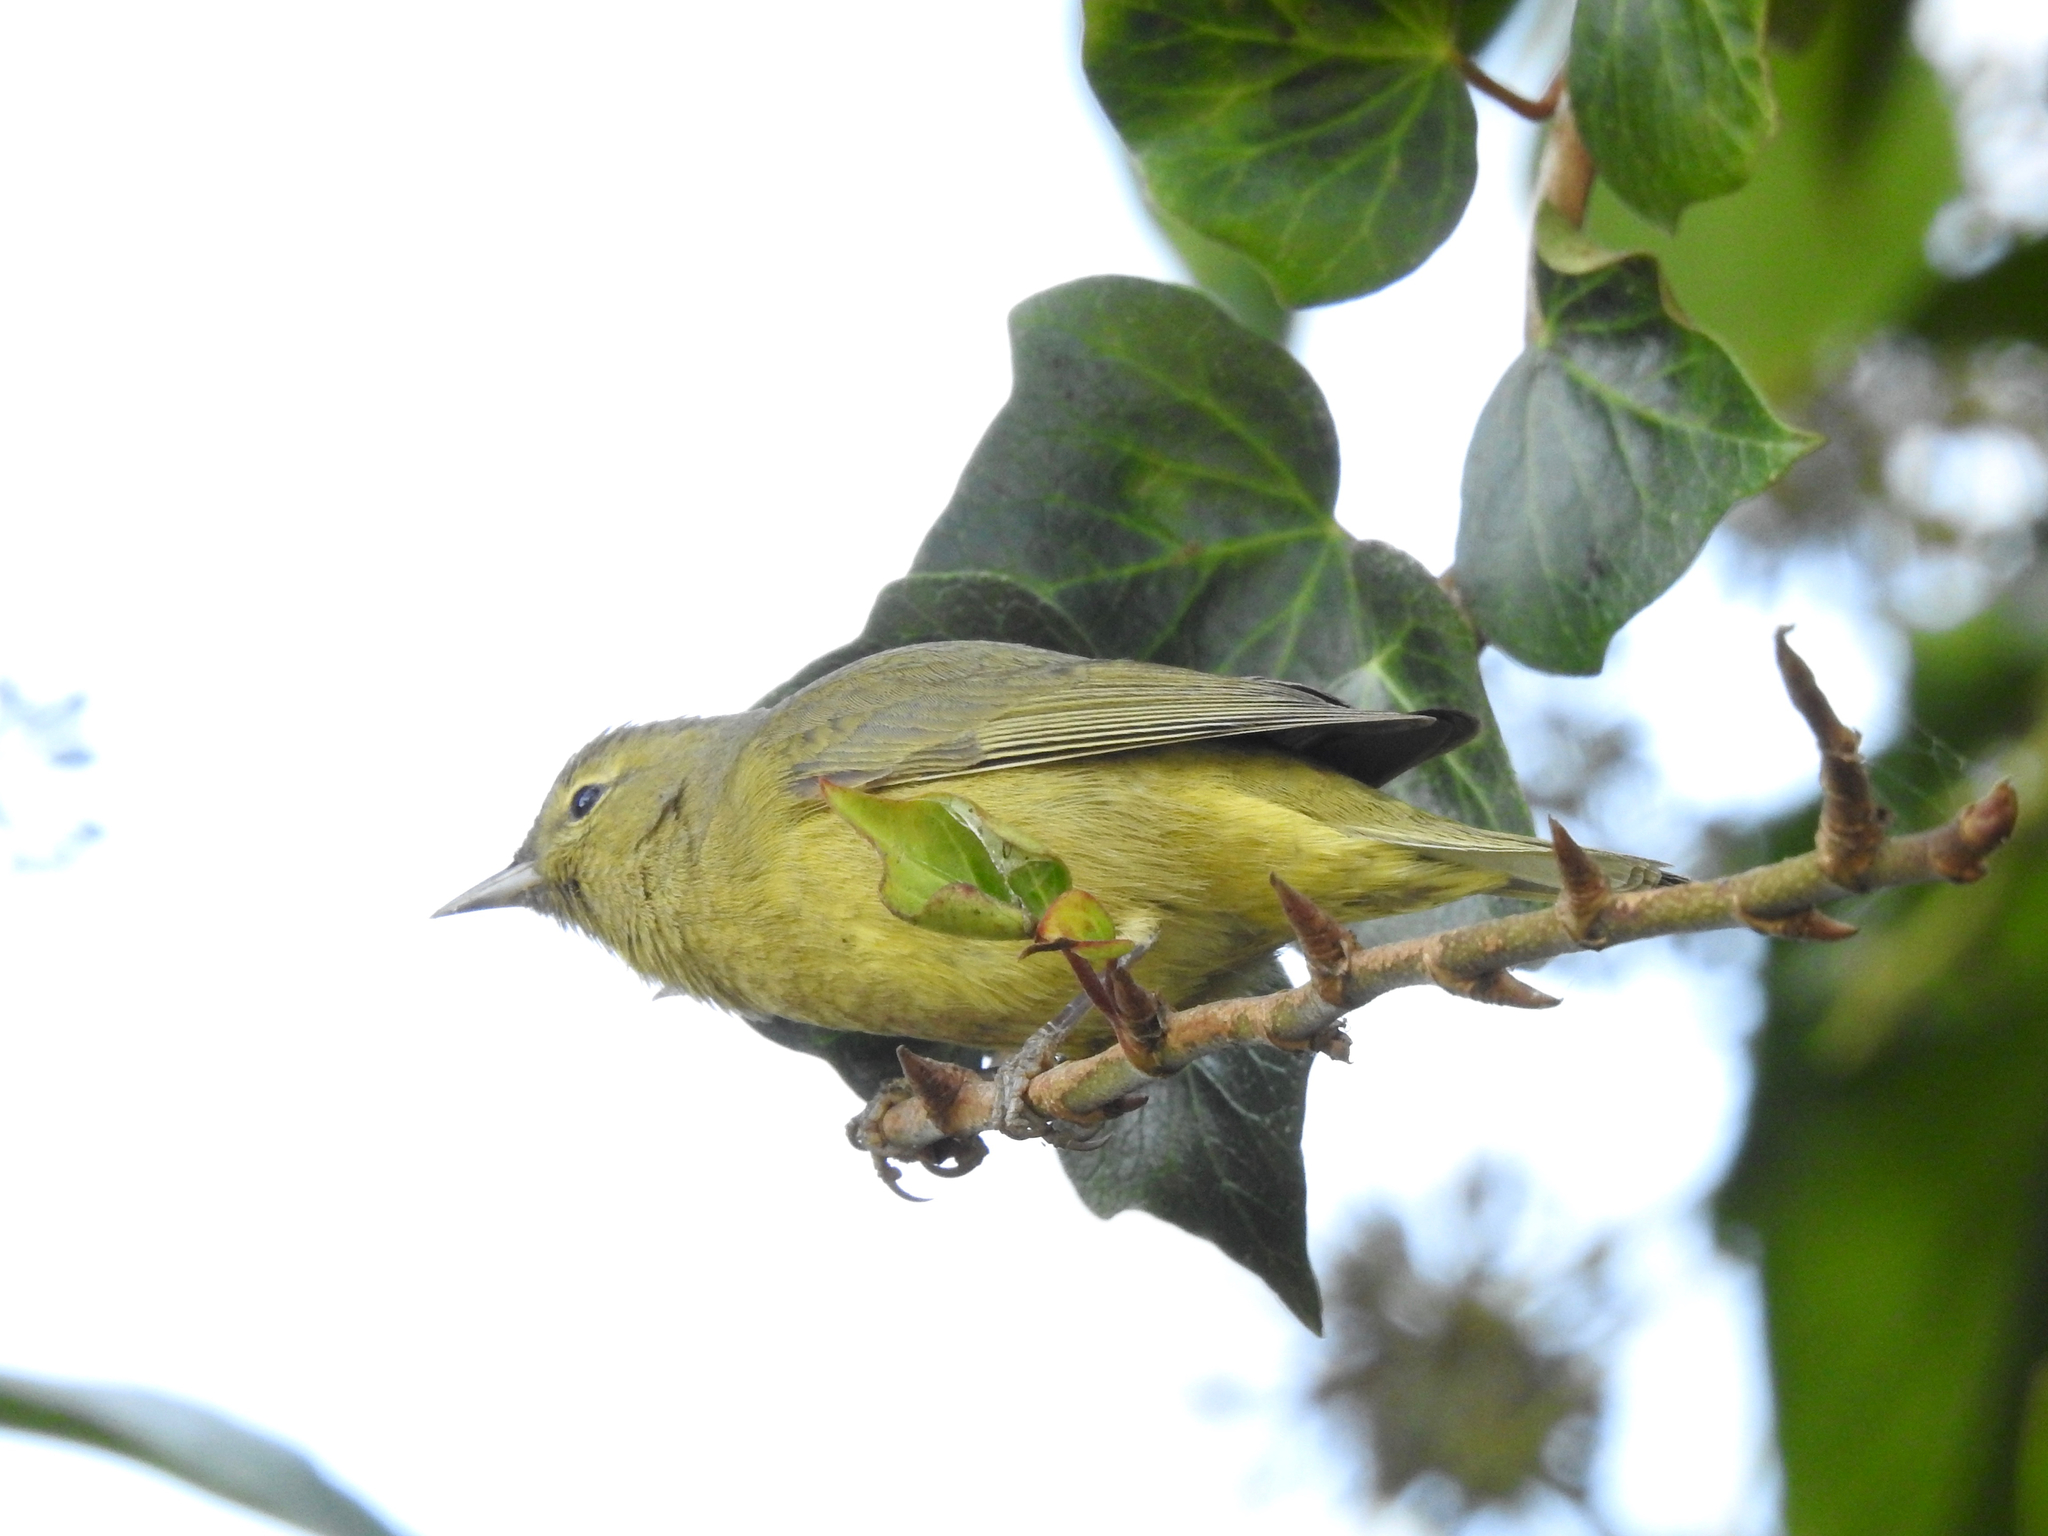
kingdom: Animalia
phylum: Chordata
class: Aves
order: Passeriformes
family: Parulidae
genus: Leiothlypis
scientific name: Leiothlypis celata
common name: Orange-crowned warbler
